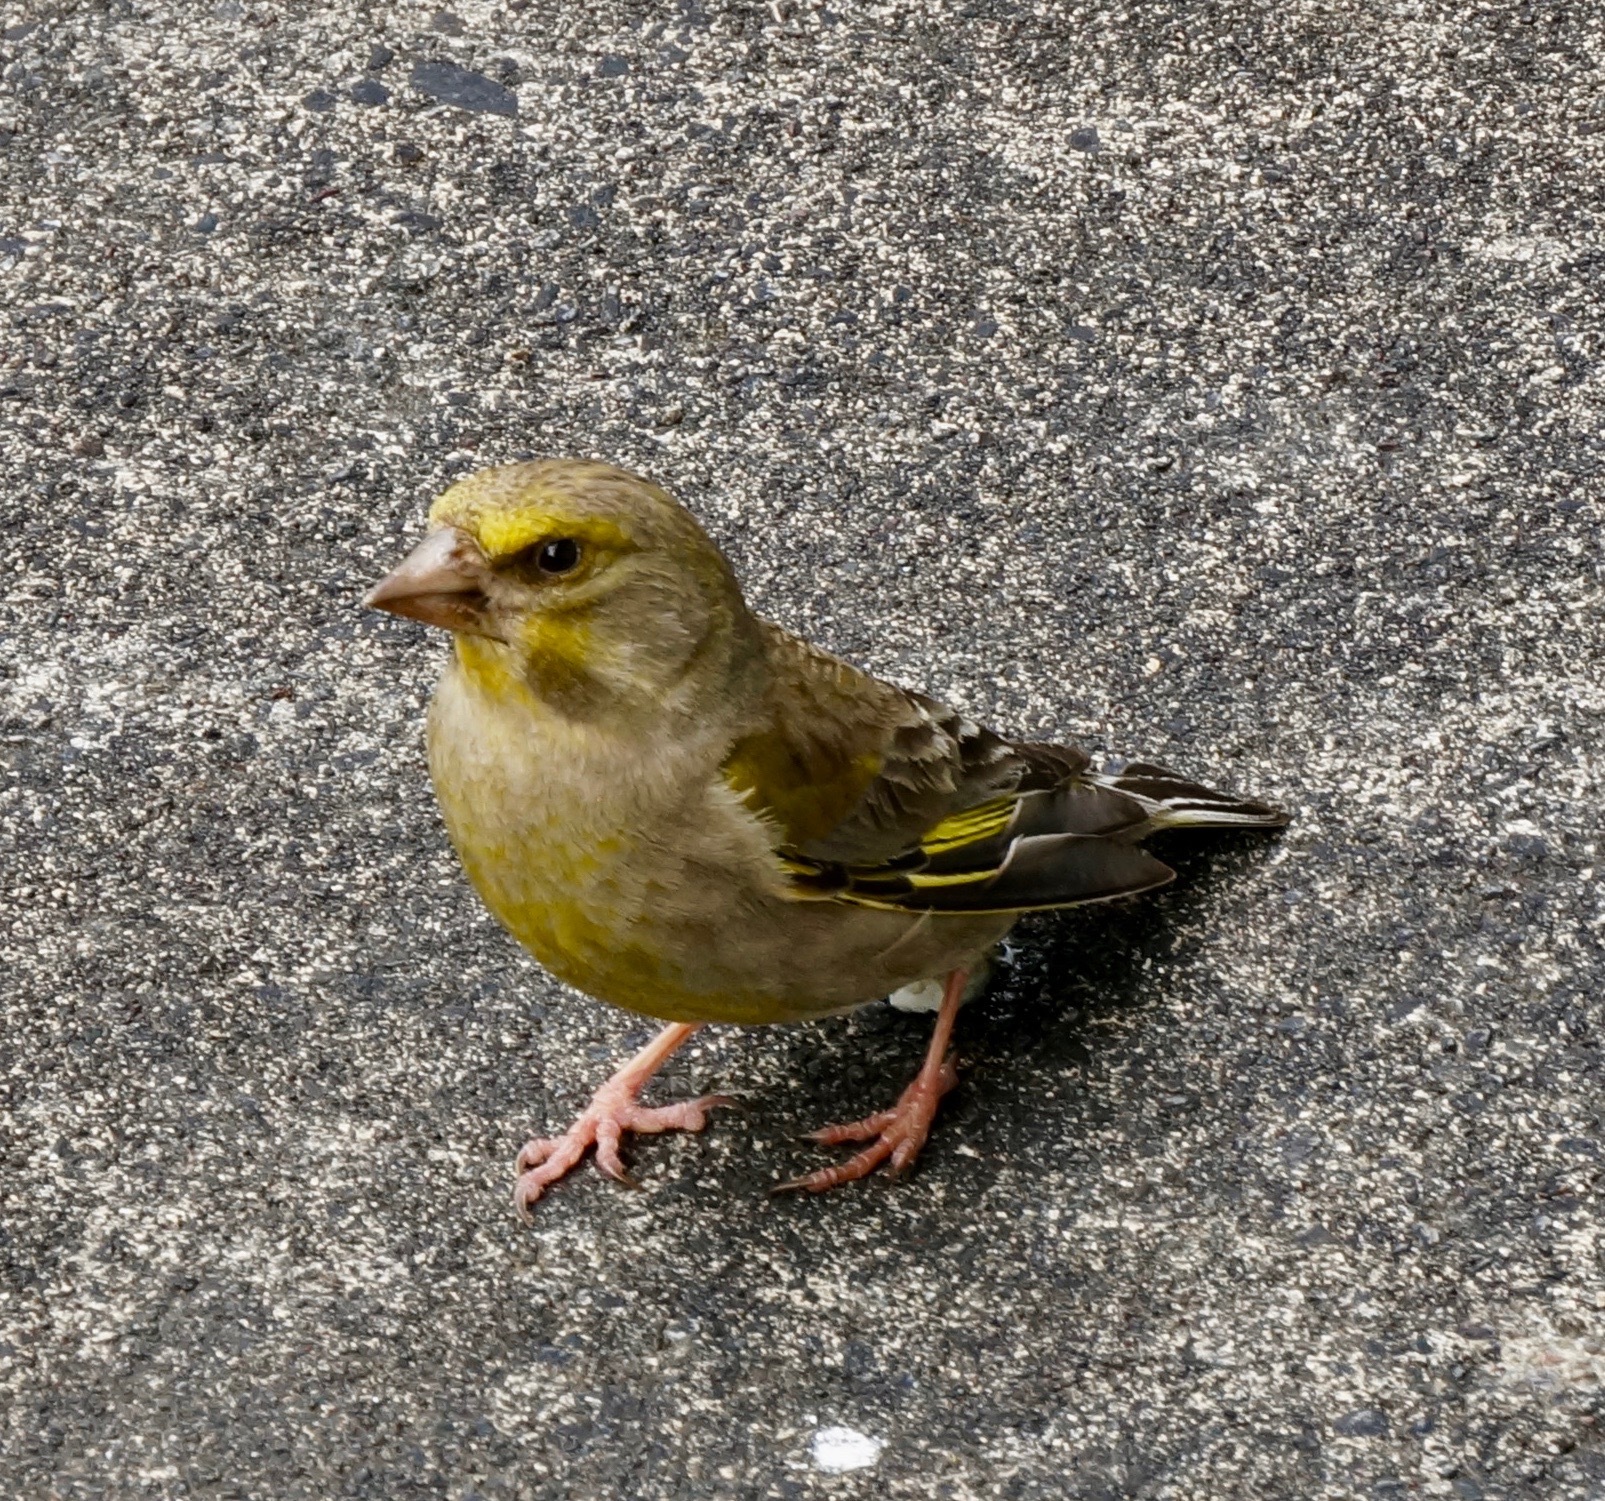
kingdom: Plantae
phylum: Tracheophyta
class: Liliopsida
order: Poales
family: Poaceae
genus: Chloris
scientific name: Chloris chloris
